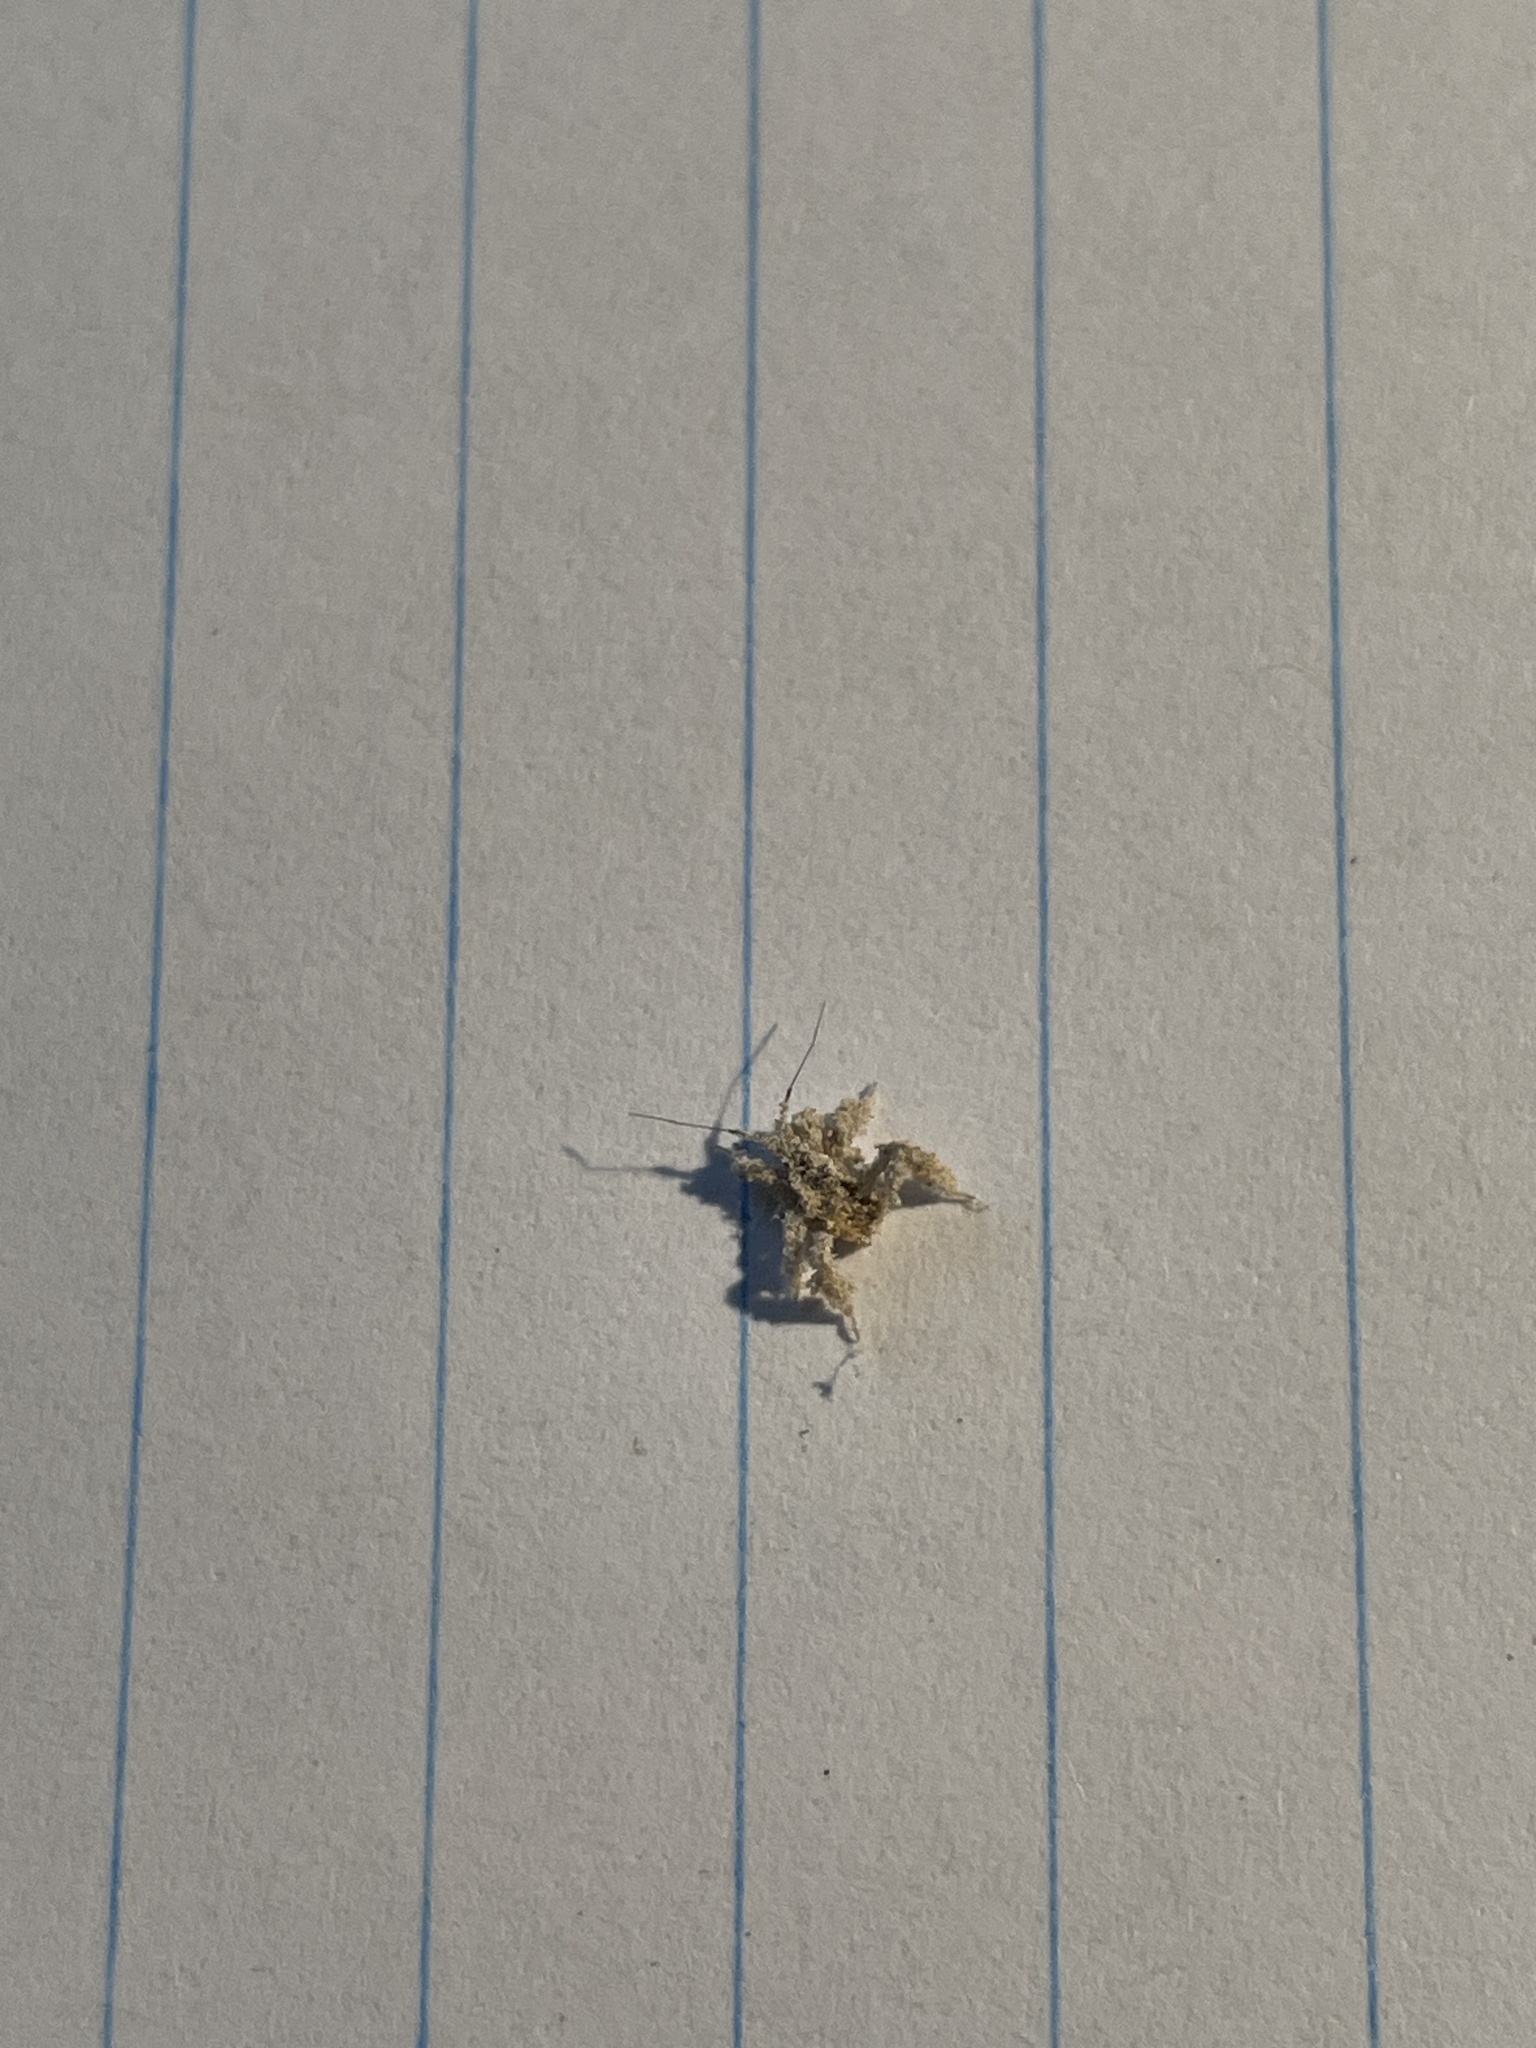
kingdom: Animalia
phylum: Arthropoda
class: Insecta
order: Hemiptera
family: Reduviidae
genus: Reduvius
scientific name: Reduvius personatus
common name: Masked hunter
